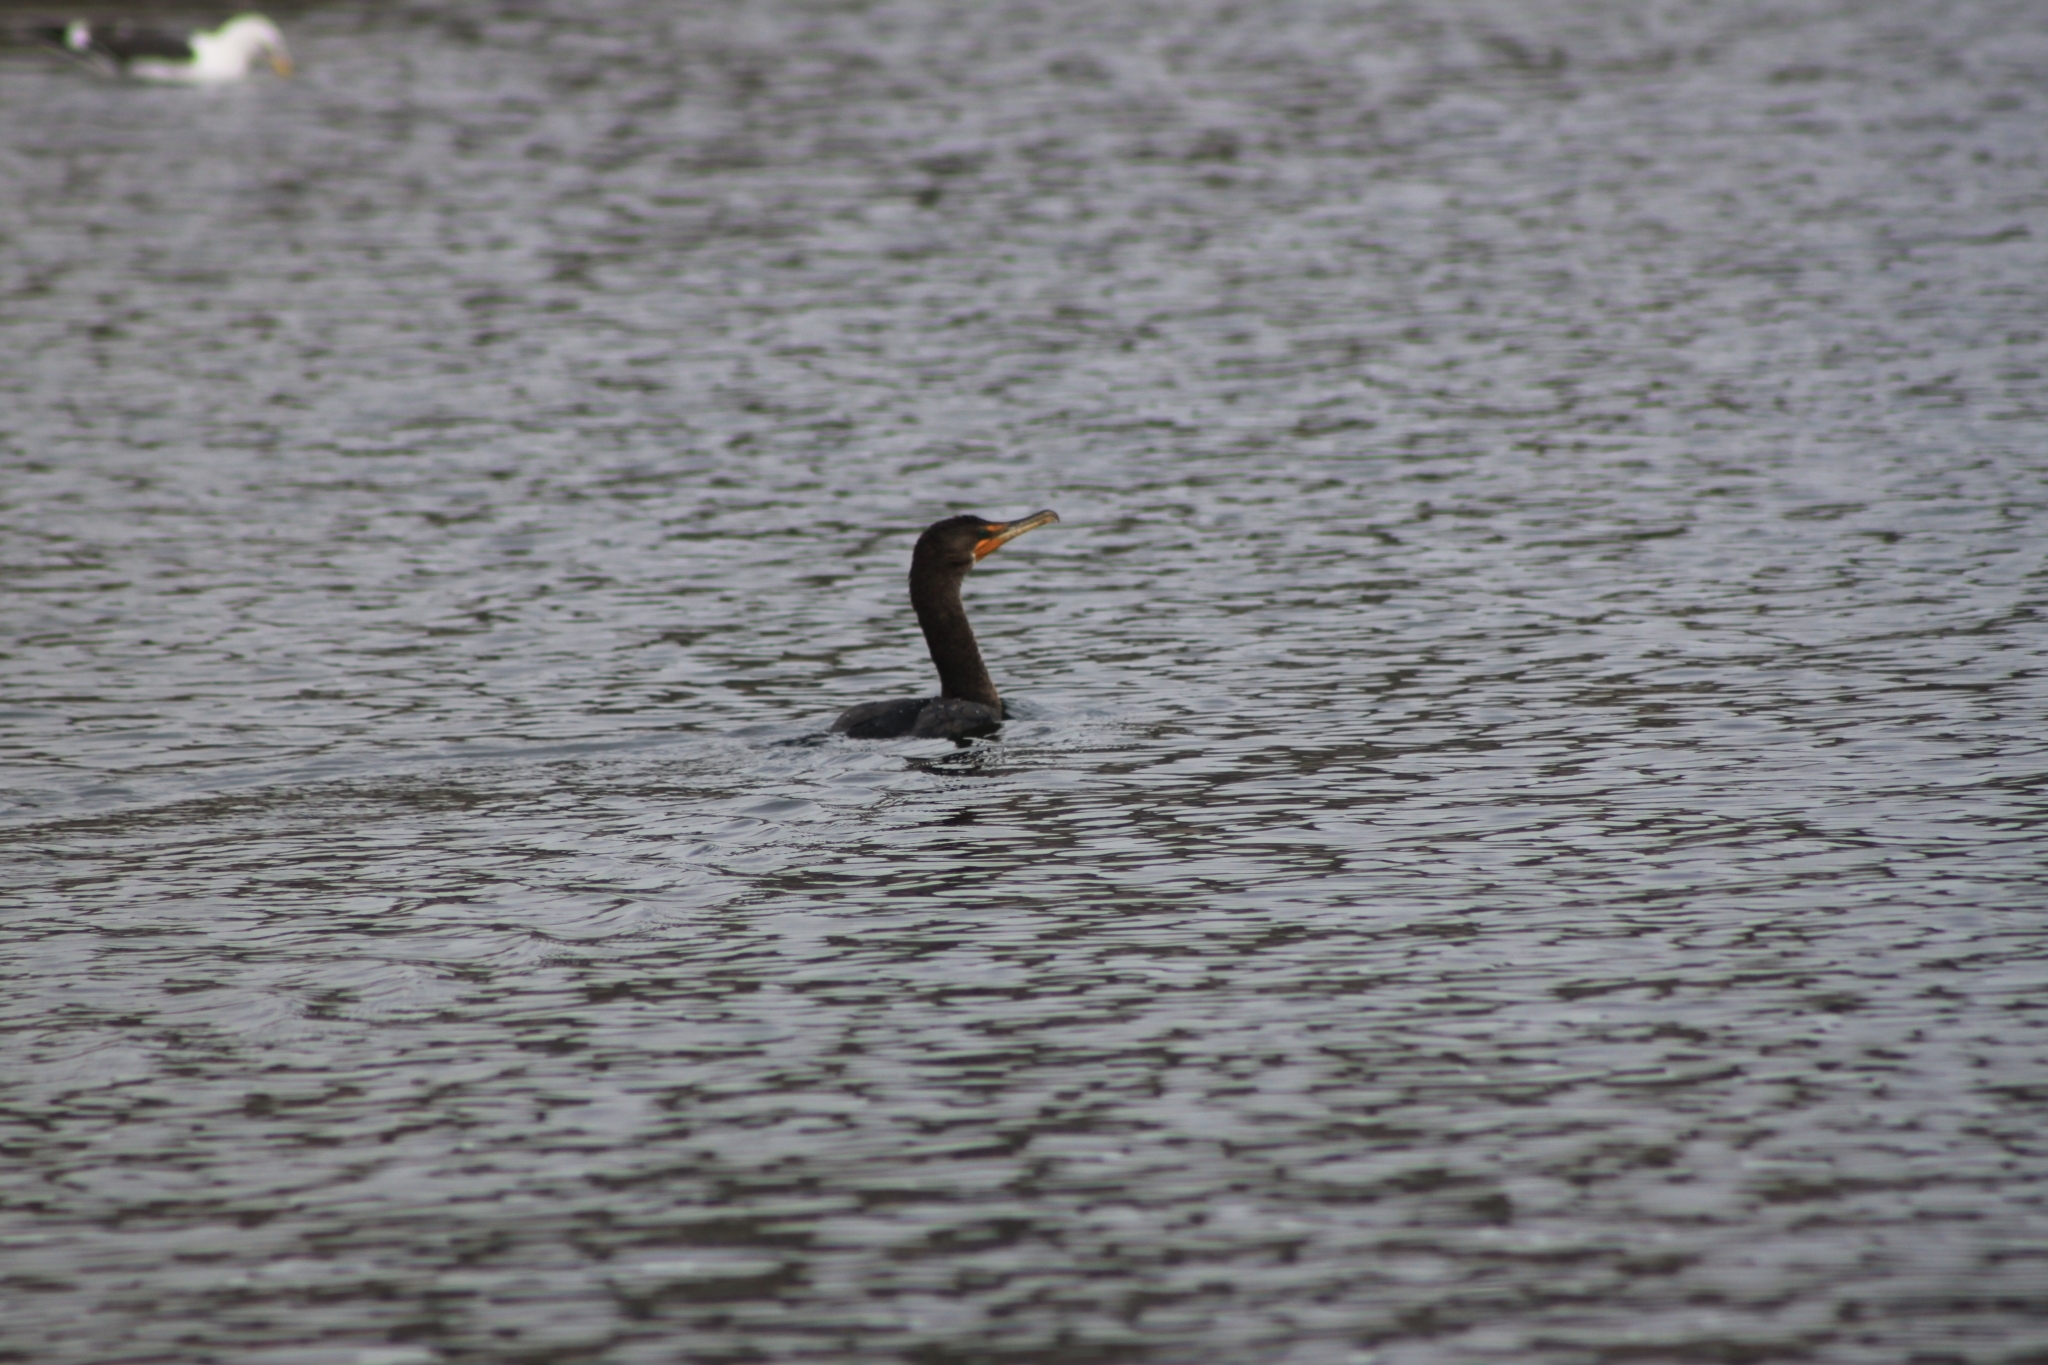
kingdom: Animalia
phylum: Chordata
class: Aves
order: Suliformes
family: Phalacrocoracidae
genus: Phalacrocorax
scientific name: Phalacrocorax auritus
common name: Double-crested cormorant
